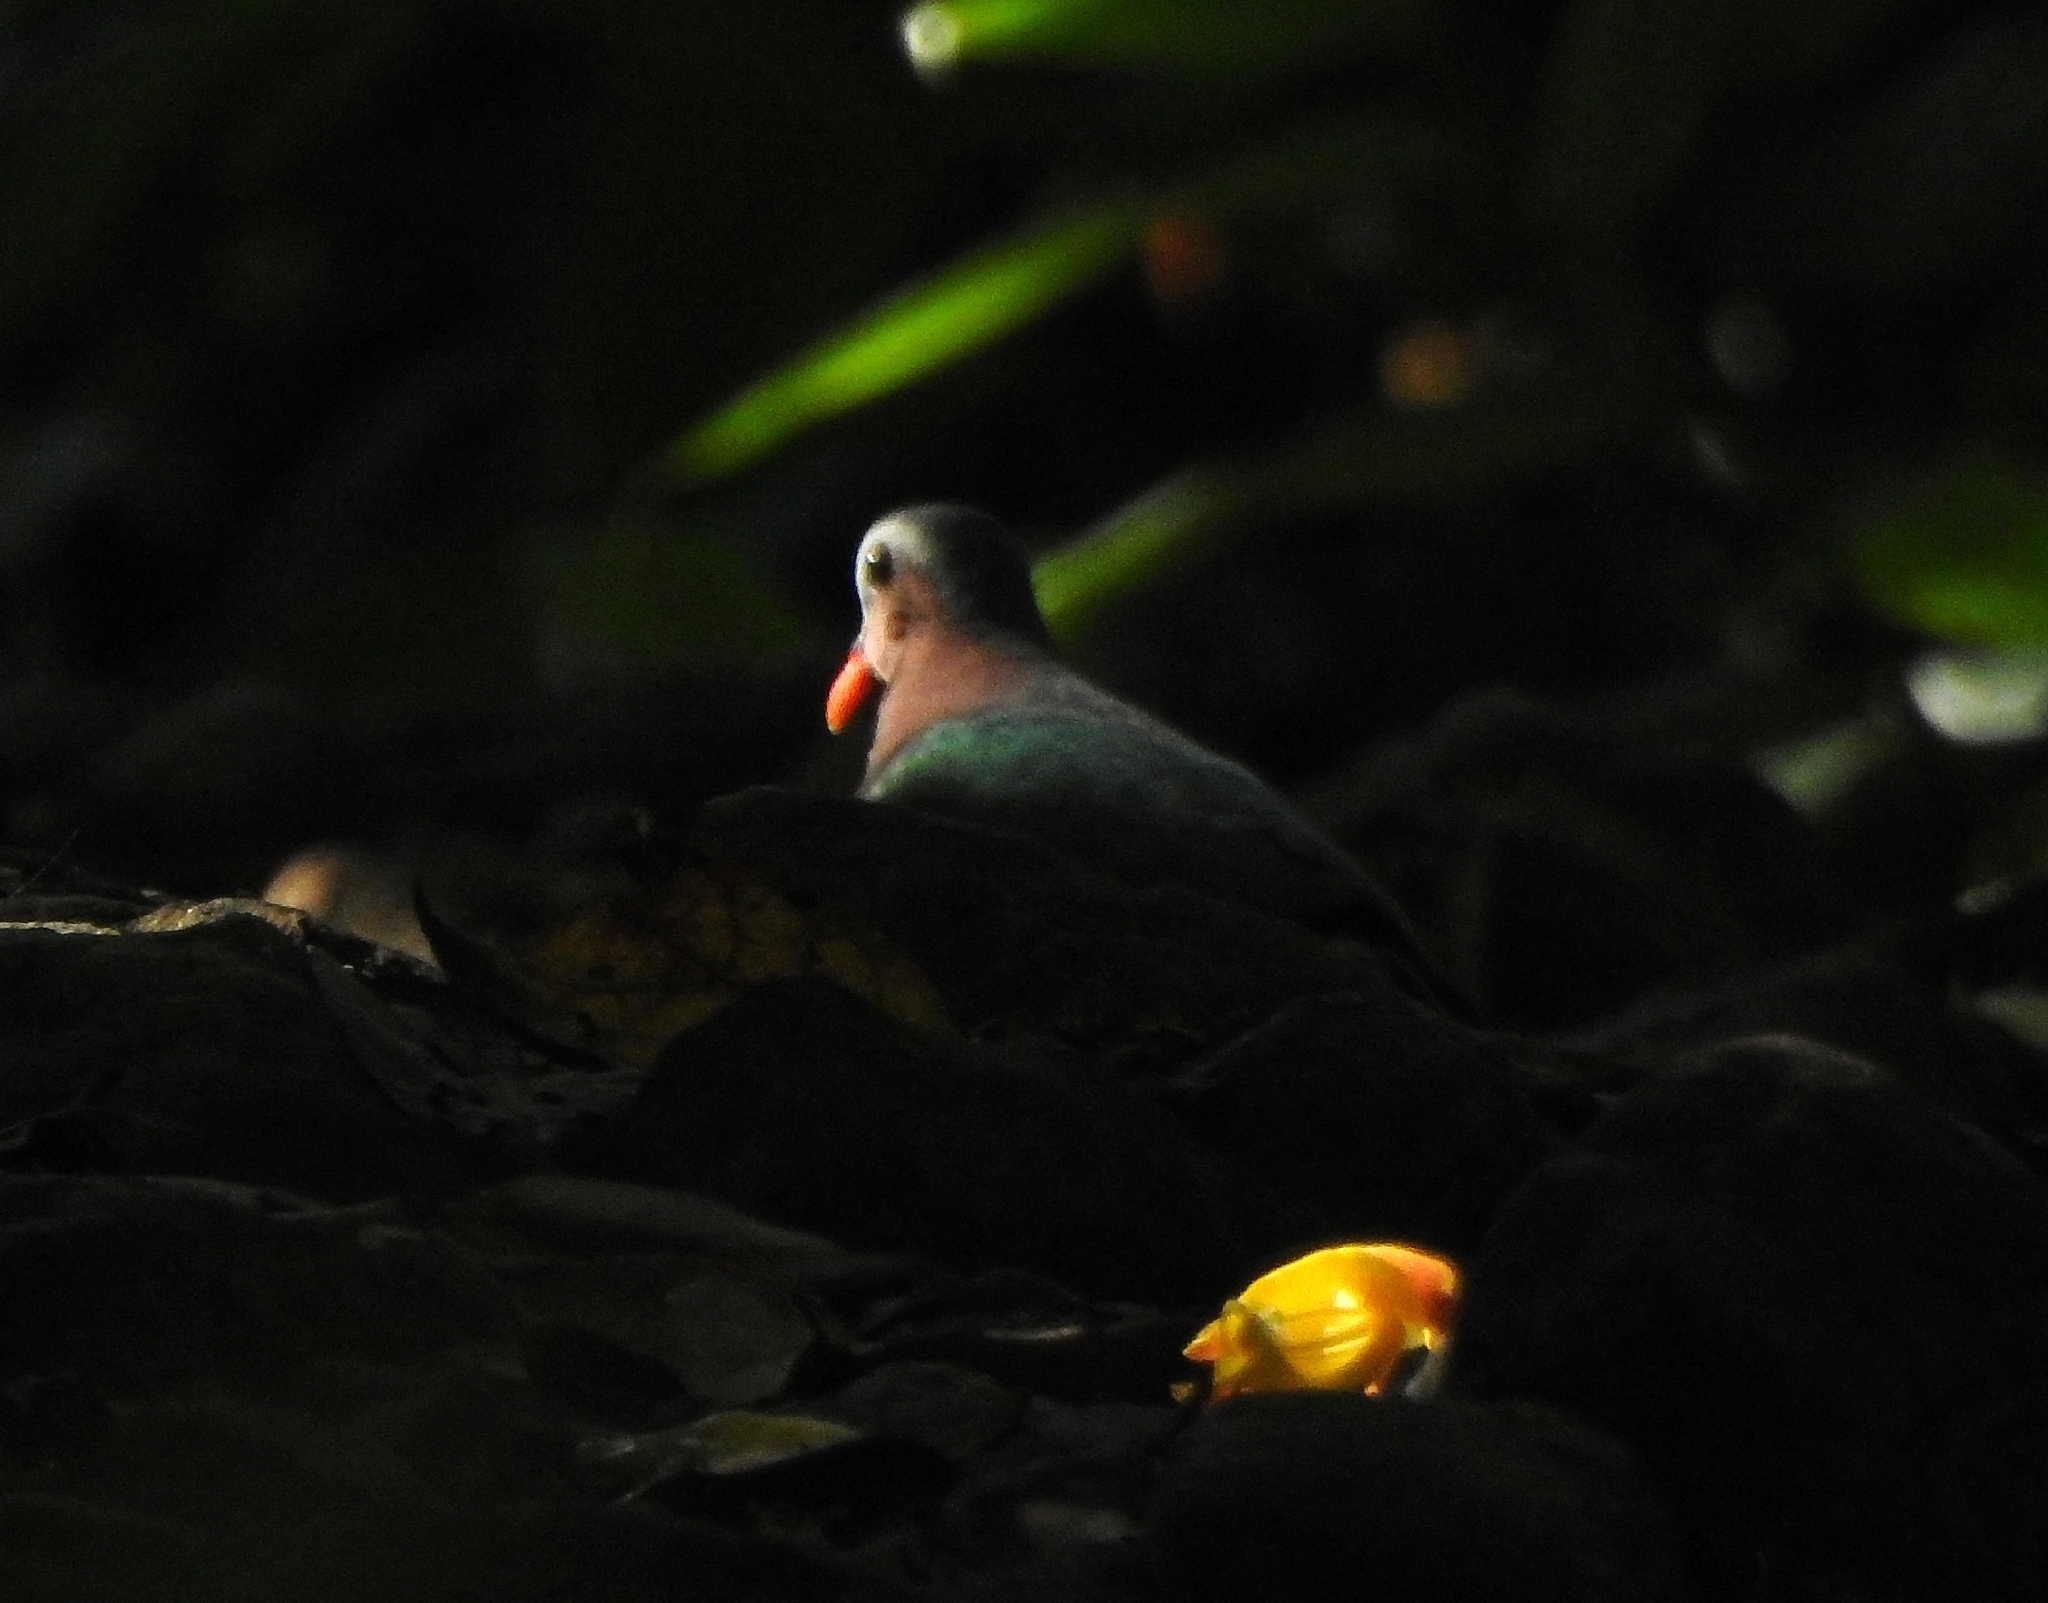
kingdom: Animalia
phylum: Chordata
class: Aves
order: Columbiformes
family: Columbidae
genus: Chalcophaps
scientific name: Chalcophaps indica
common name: Common emerald dove
